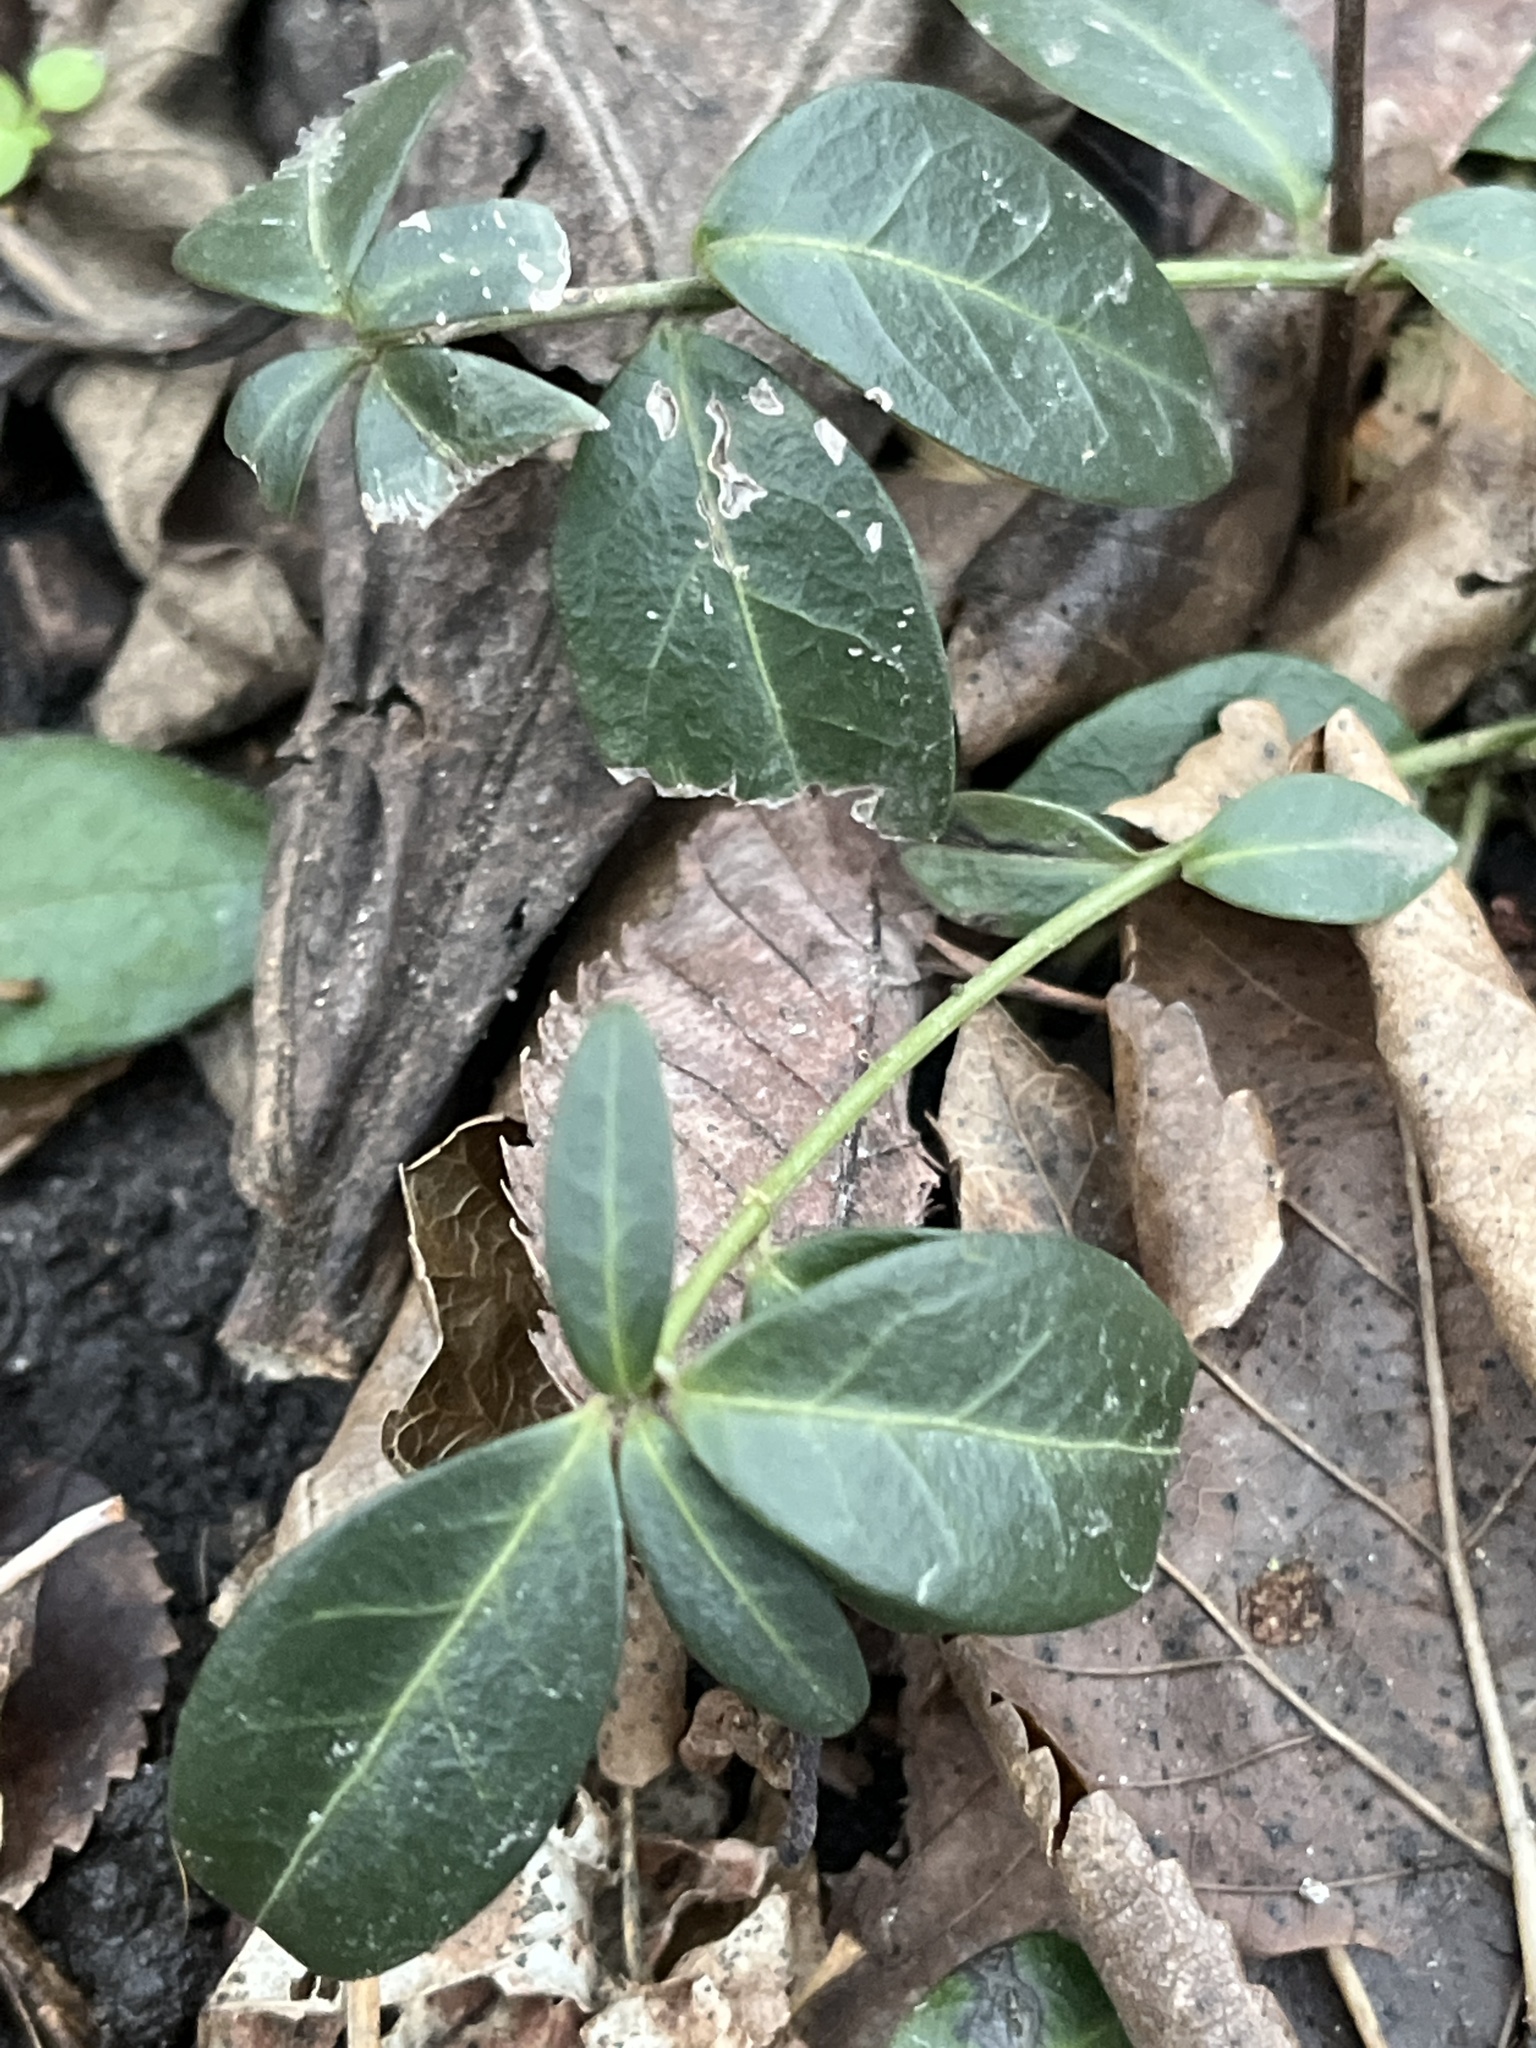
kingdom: Plantae
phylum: Tracheophyta
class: Magnoliopsida
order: Gentianales
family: Apocynaceae
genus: Vinca
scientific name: Vinca minor
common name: Lesser periwinkle
